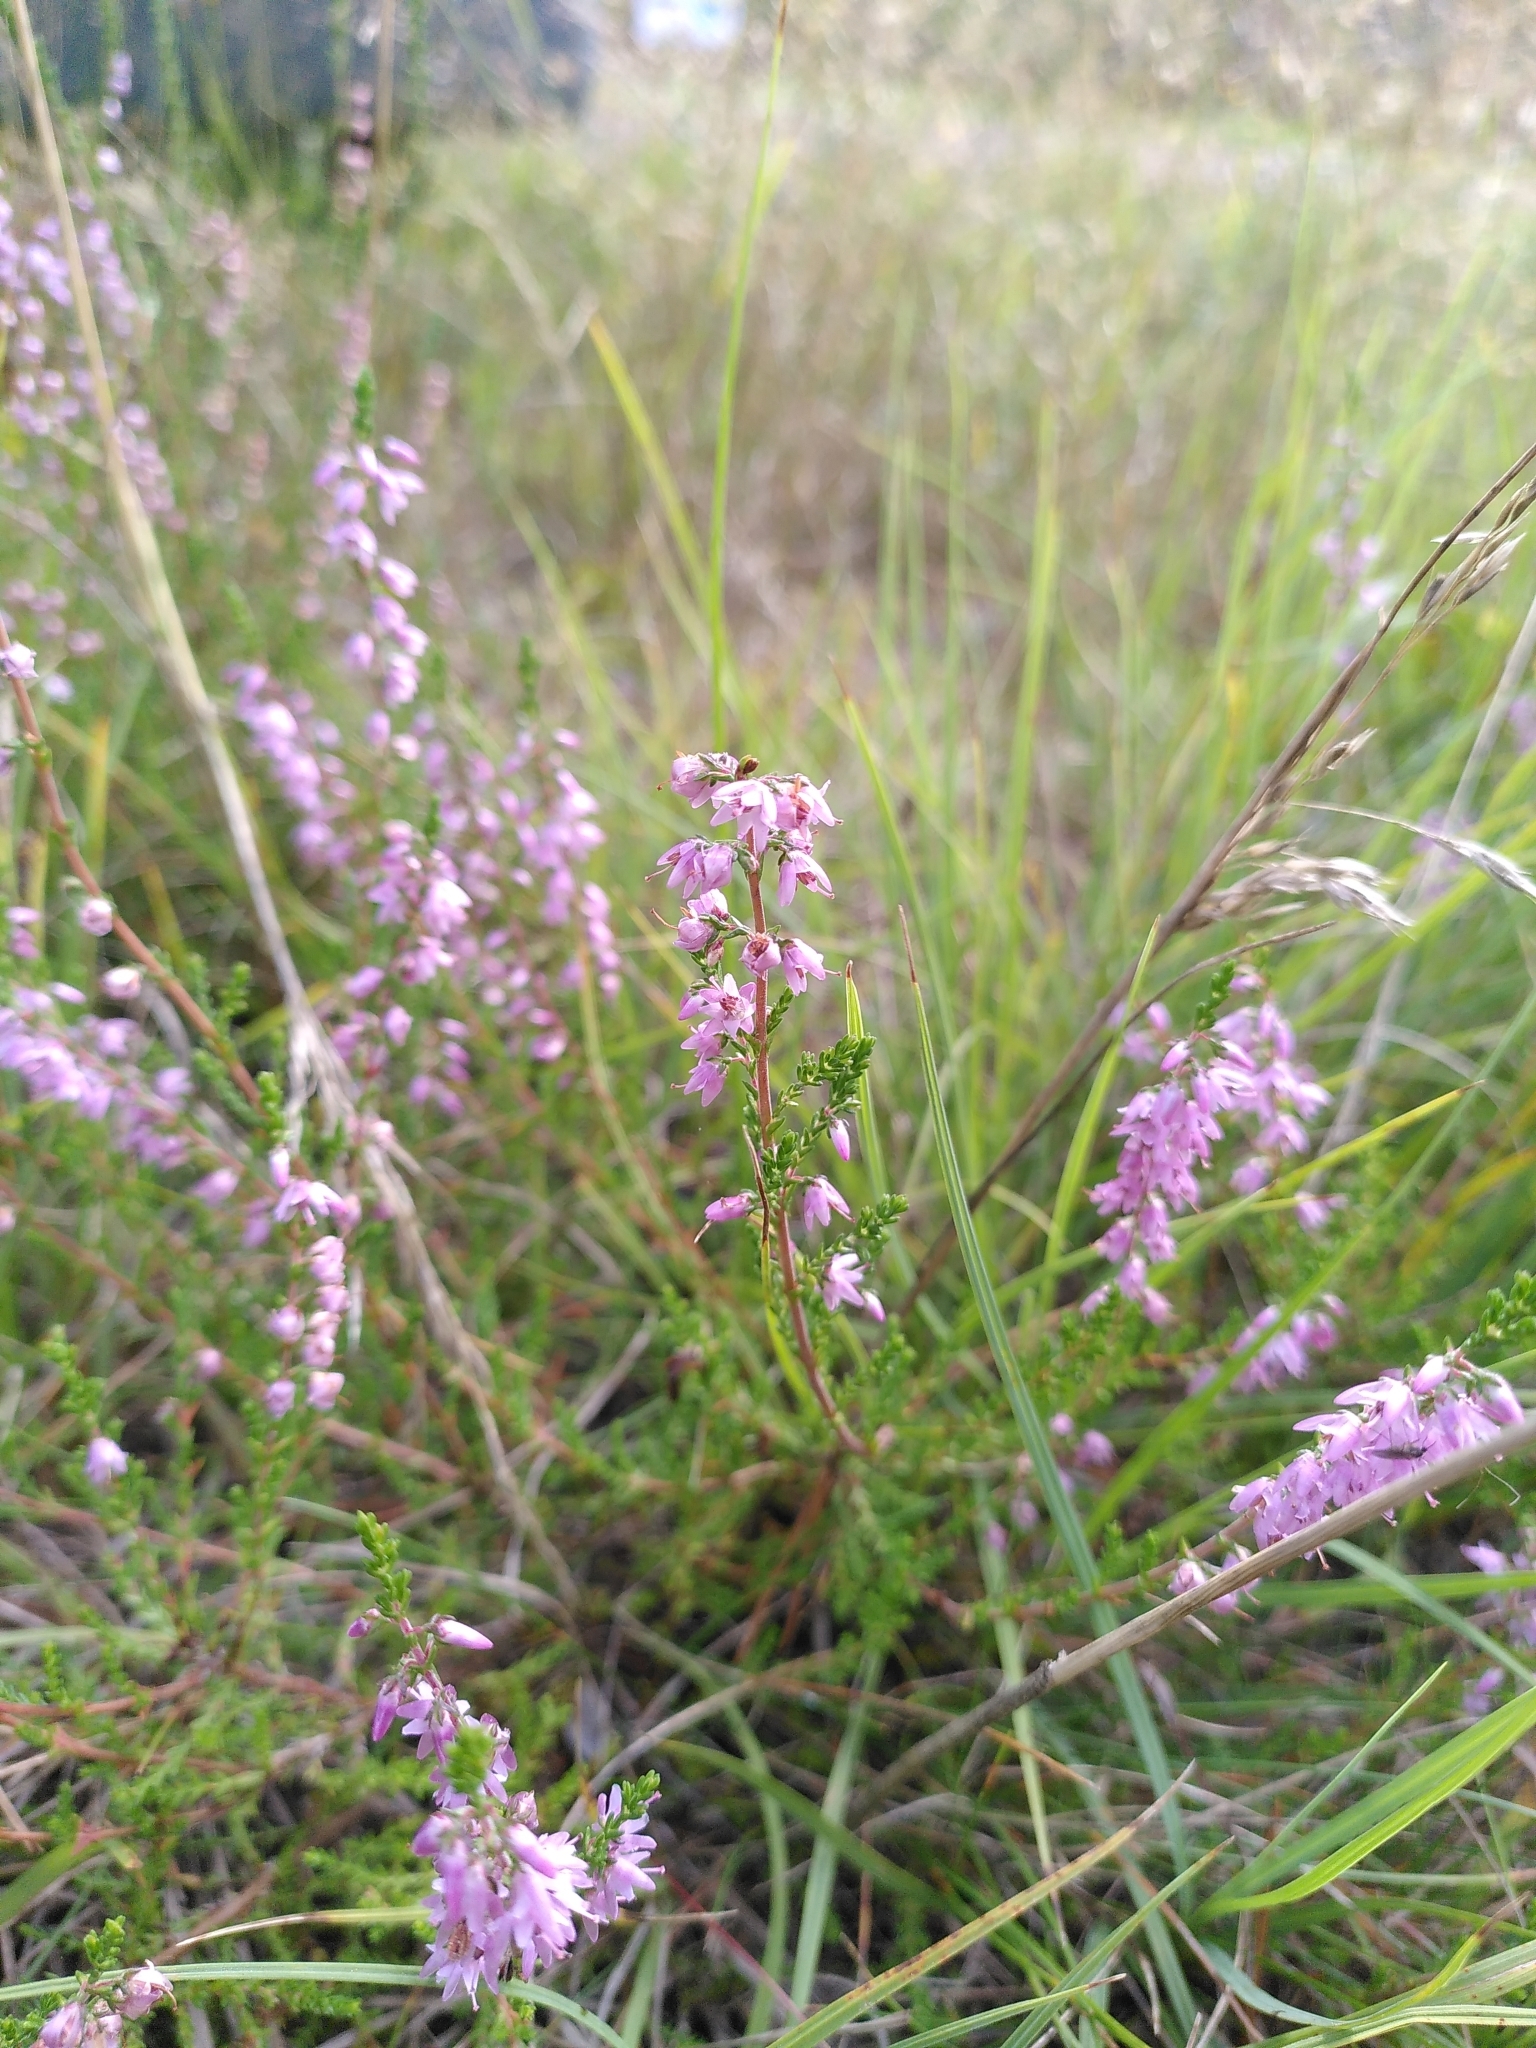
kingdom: Plantae
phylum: Tracheophyta
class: Magnoliopsida
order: Ericales
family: Ericaceae
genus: Calluna
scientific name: Calluna vulgaris
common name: Heather
